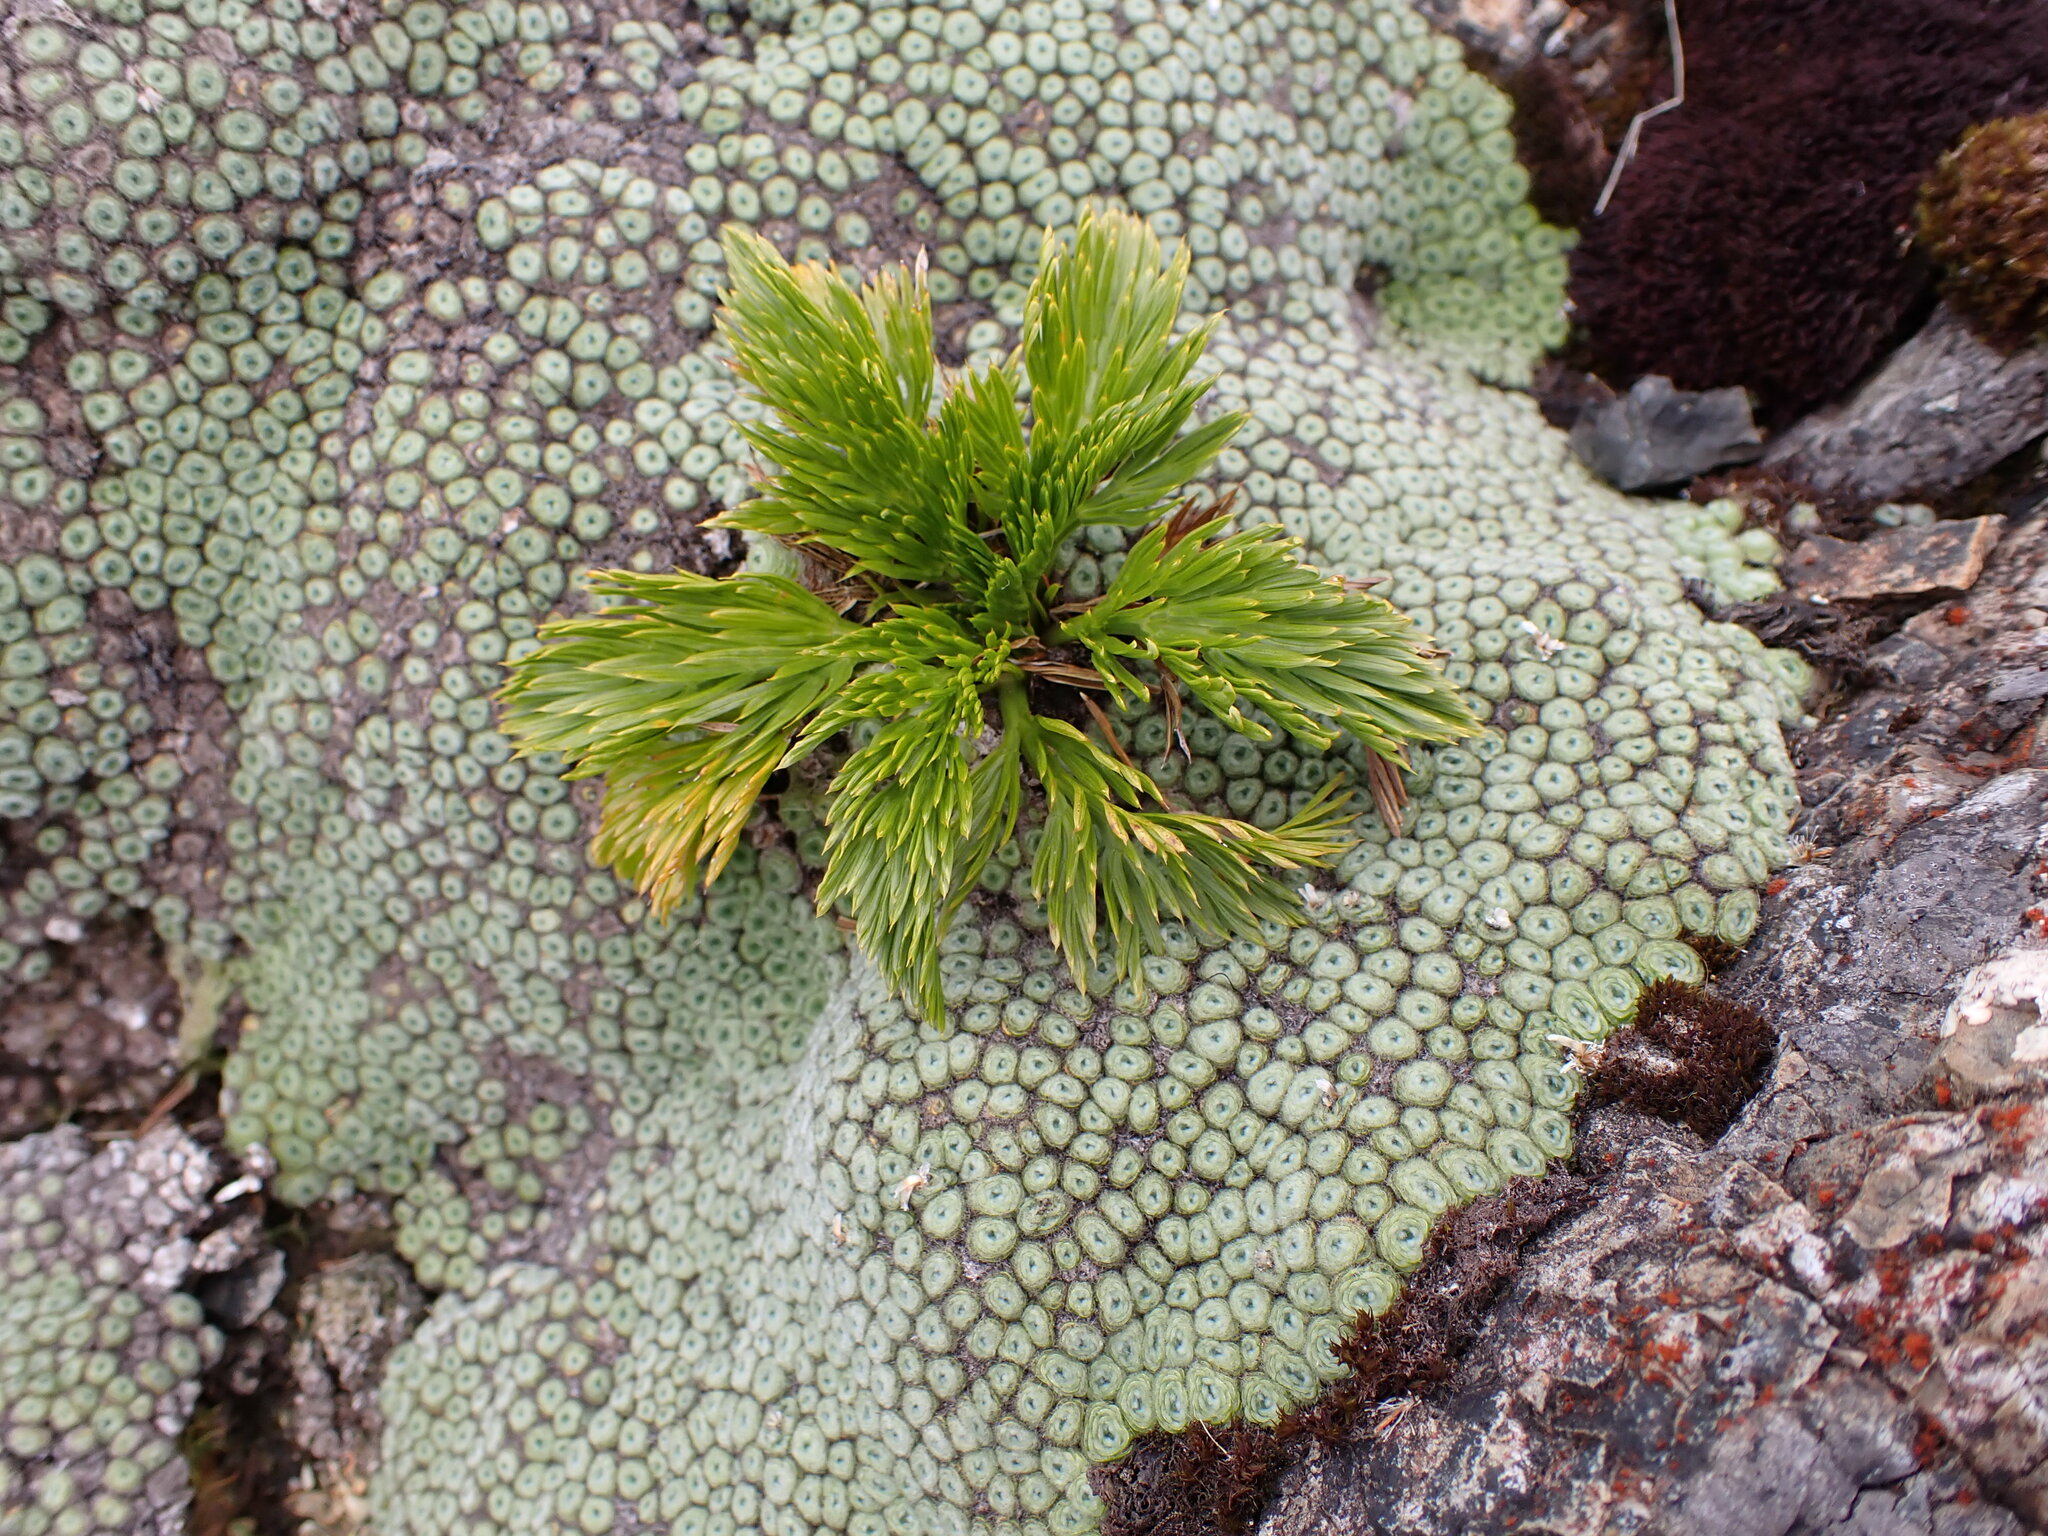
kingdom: Plantae
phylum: Tracheophyta
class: Magnoliopsida
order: Apiales
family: Apiaceae
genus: Aciphylla
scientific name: Aciphylla dissecta
